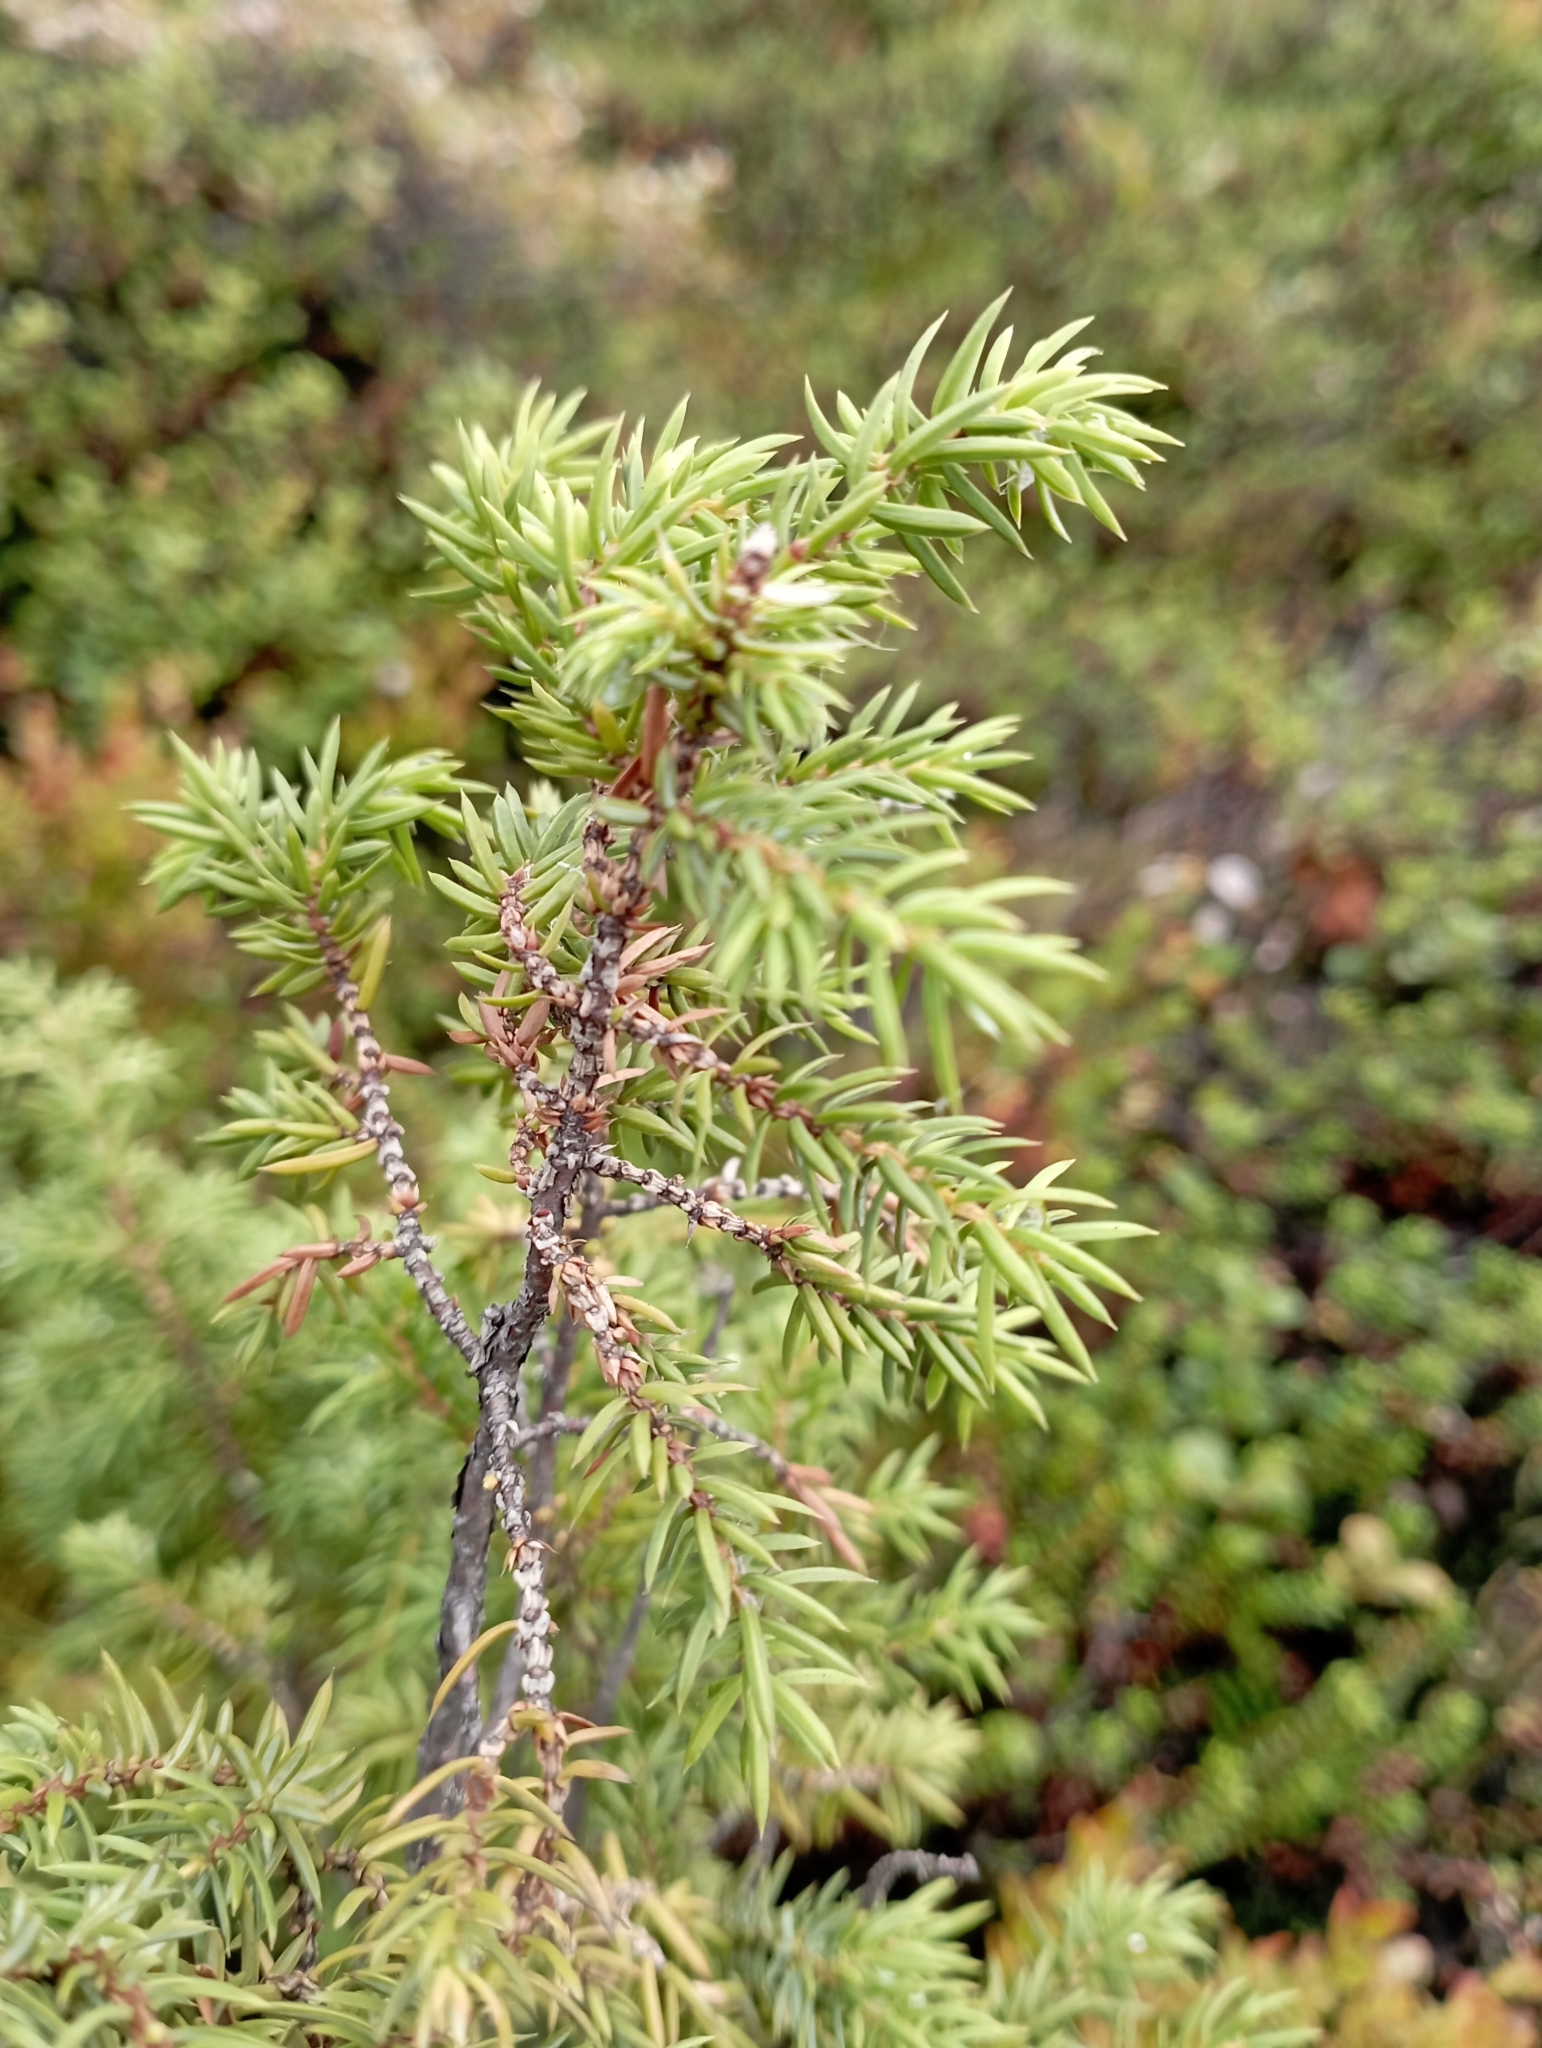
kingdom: Plantae
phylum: Tracheophyta
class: Pinopsida
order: Pinales
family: Cupressaceae
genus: Juniperus
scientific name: Juniperus communis
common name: Common juniper
